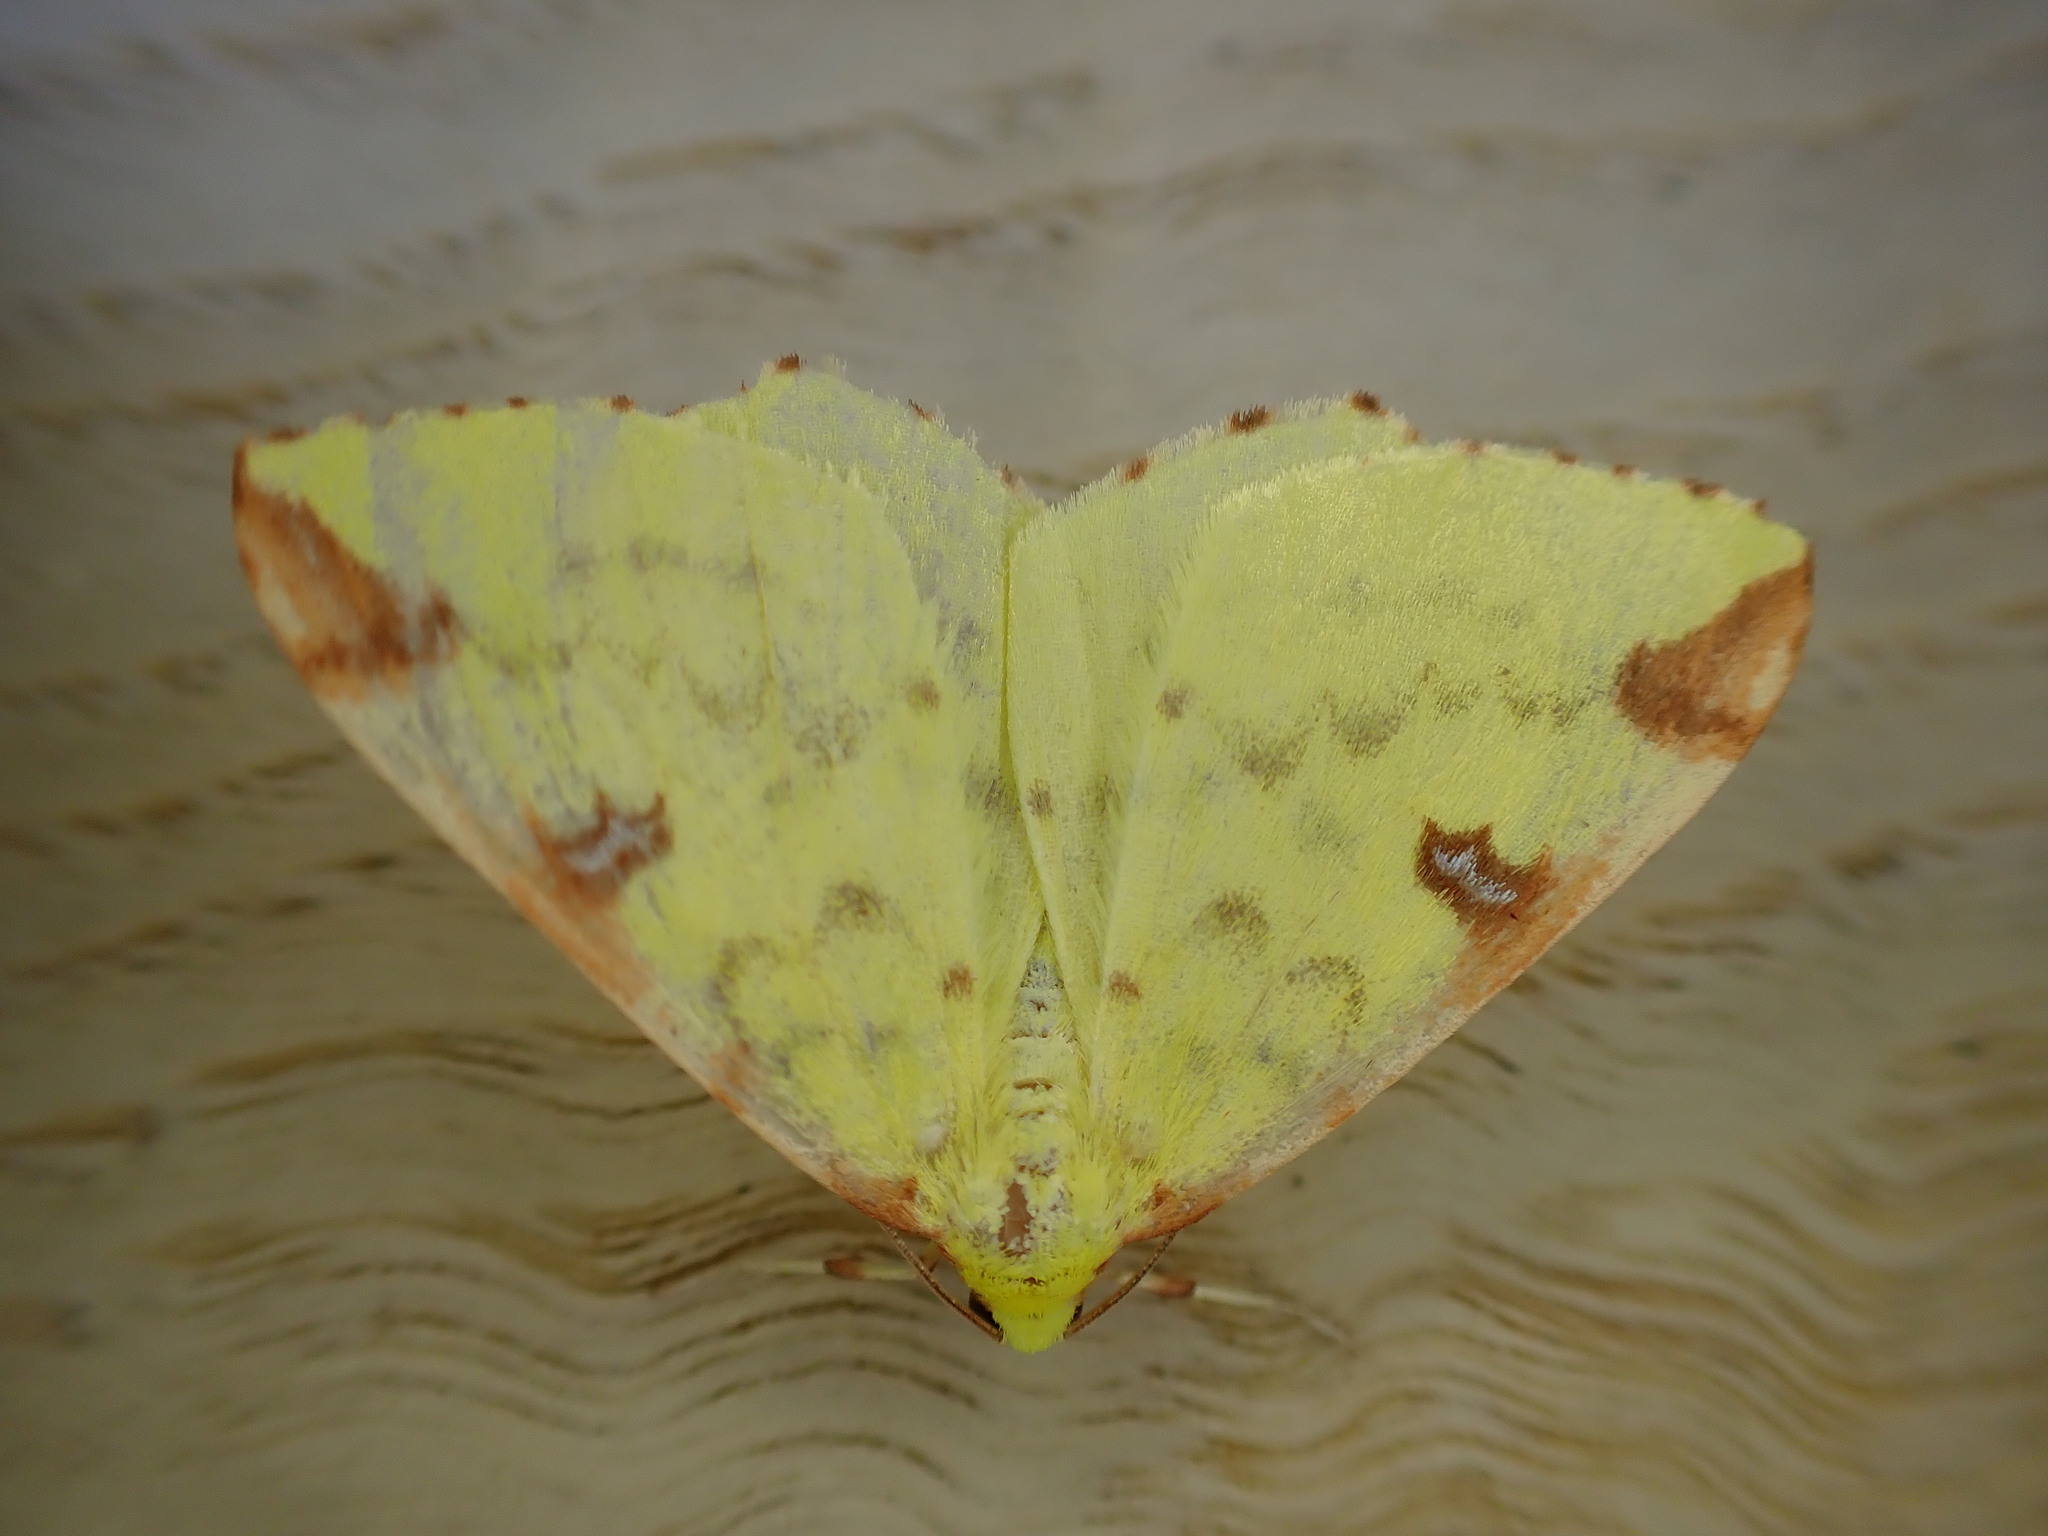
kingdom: Animalia
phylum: Arthropoda
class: Insecta
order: Lepidoptera
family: Geometridae
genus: Opisthograptis
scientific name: Opisthograptis luteolata
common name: Brimstone moth
